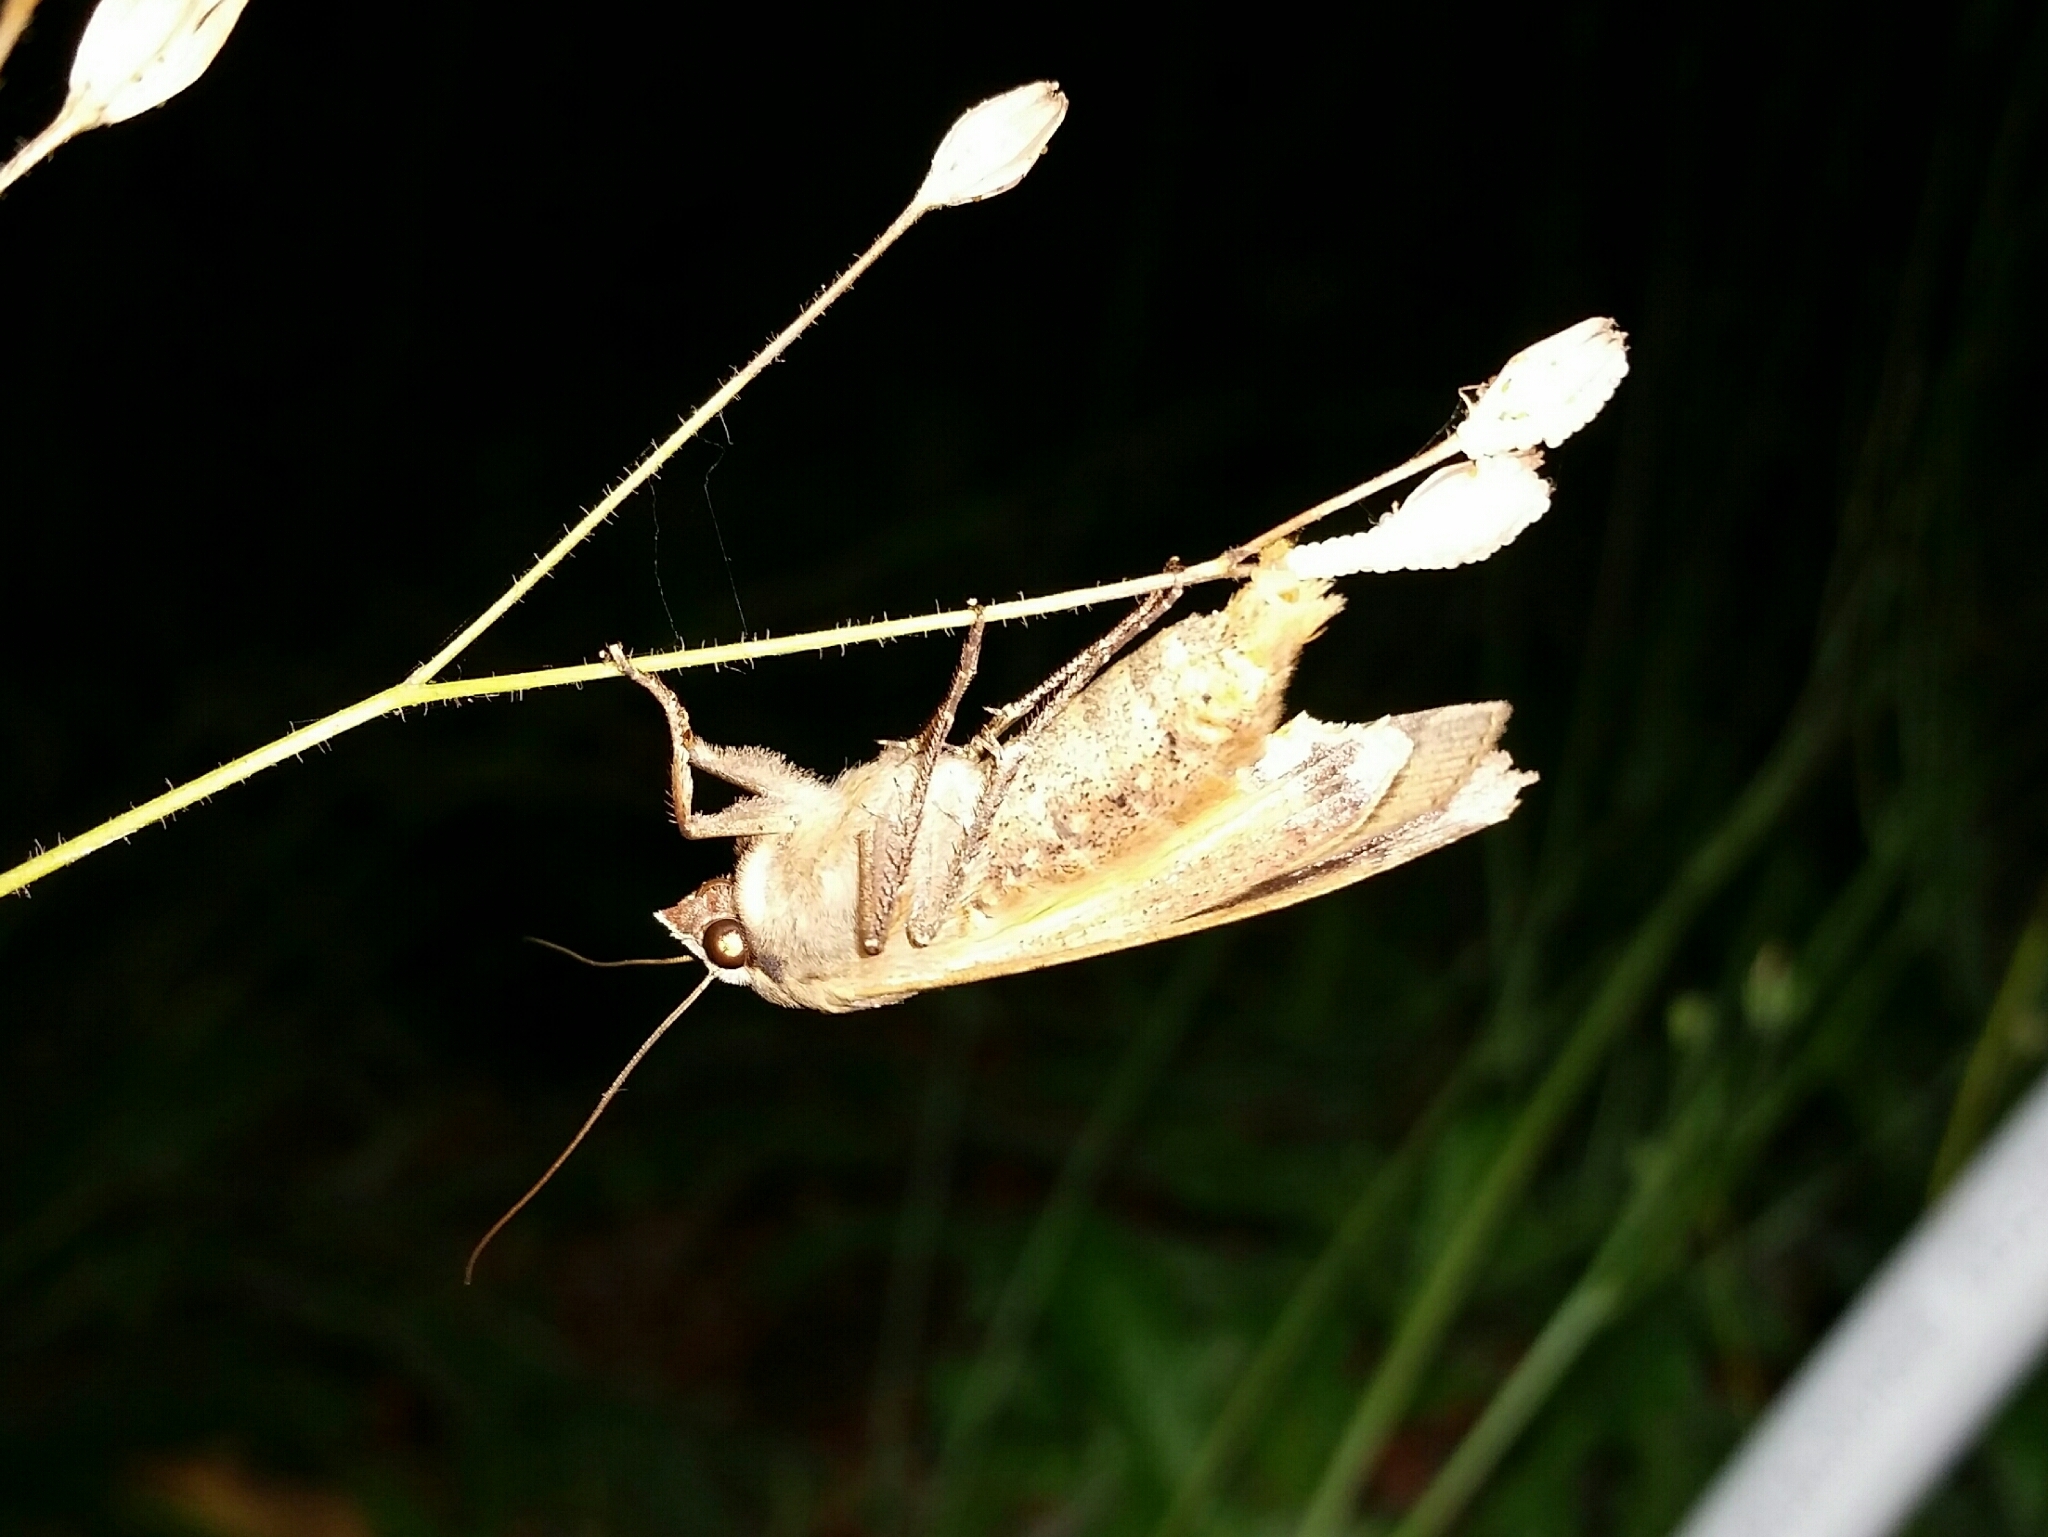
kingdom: Animalia
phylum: Arthropoda
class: Insecta
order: Lepidoptera
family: Noctuidae
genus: Noctua
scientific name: Noctua pronuba
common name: Large yellow underwing
